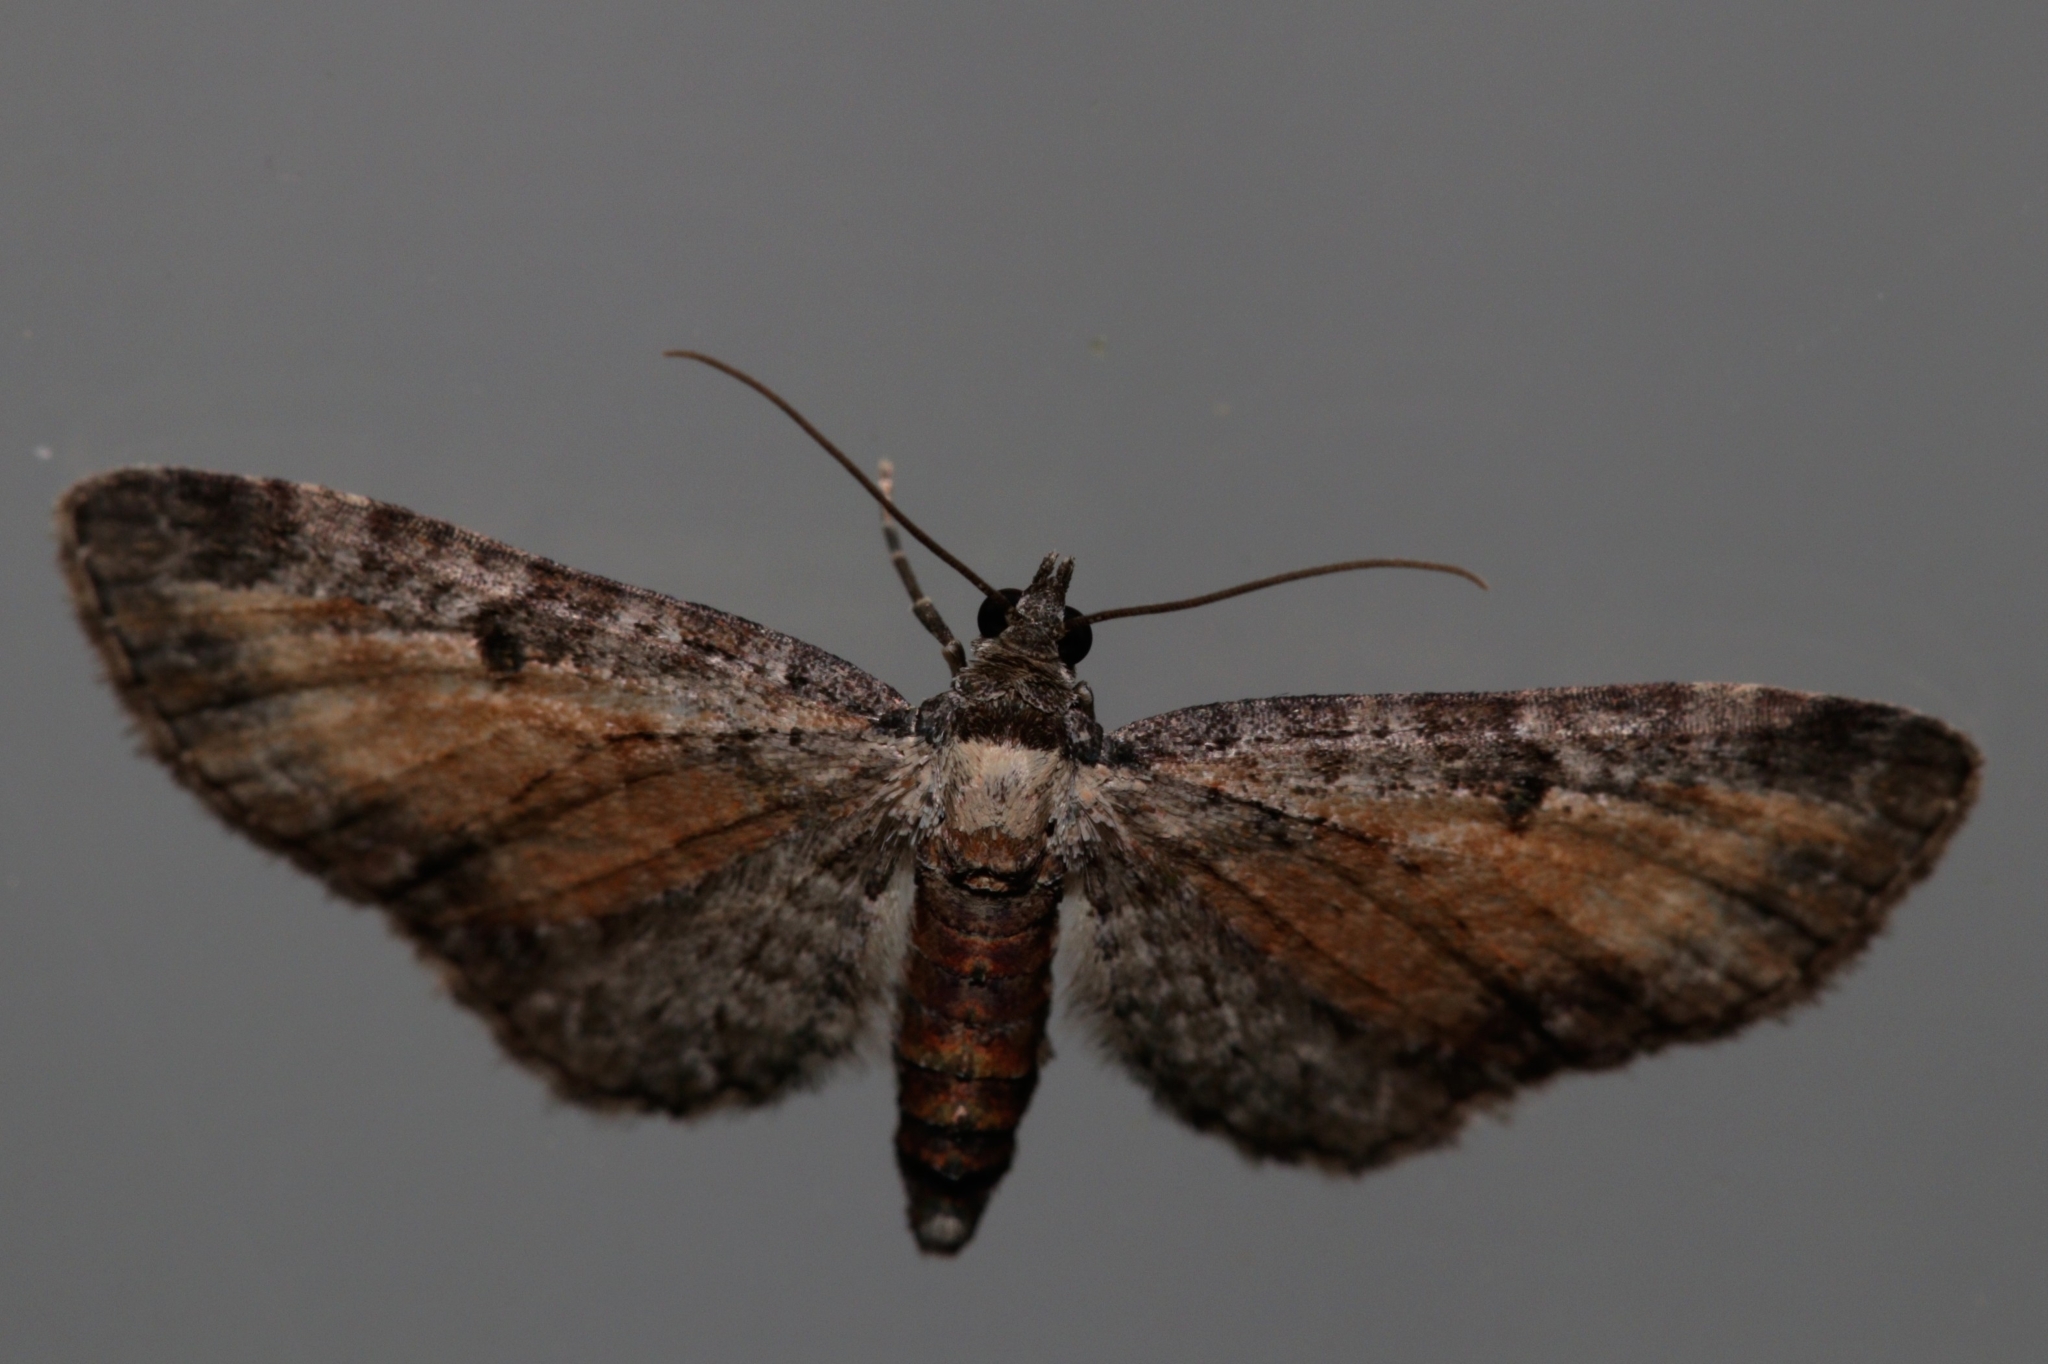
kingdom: Animalia
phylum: Arthropoda
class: Insecta
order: Lepidoptera
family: Geometridae
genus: Eupithecia
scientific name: Eupithecia icterata
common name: Tawny speckled pug
